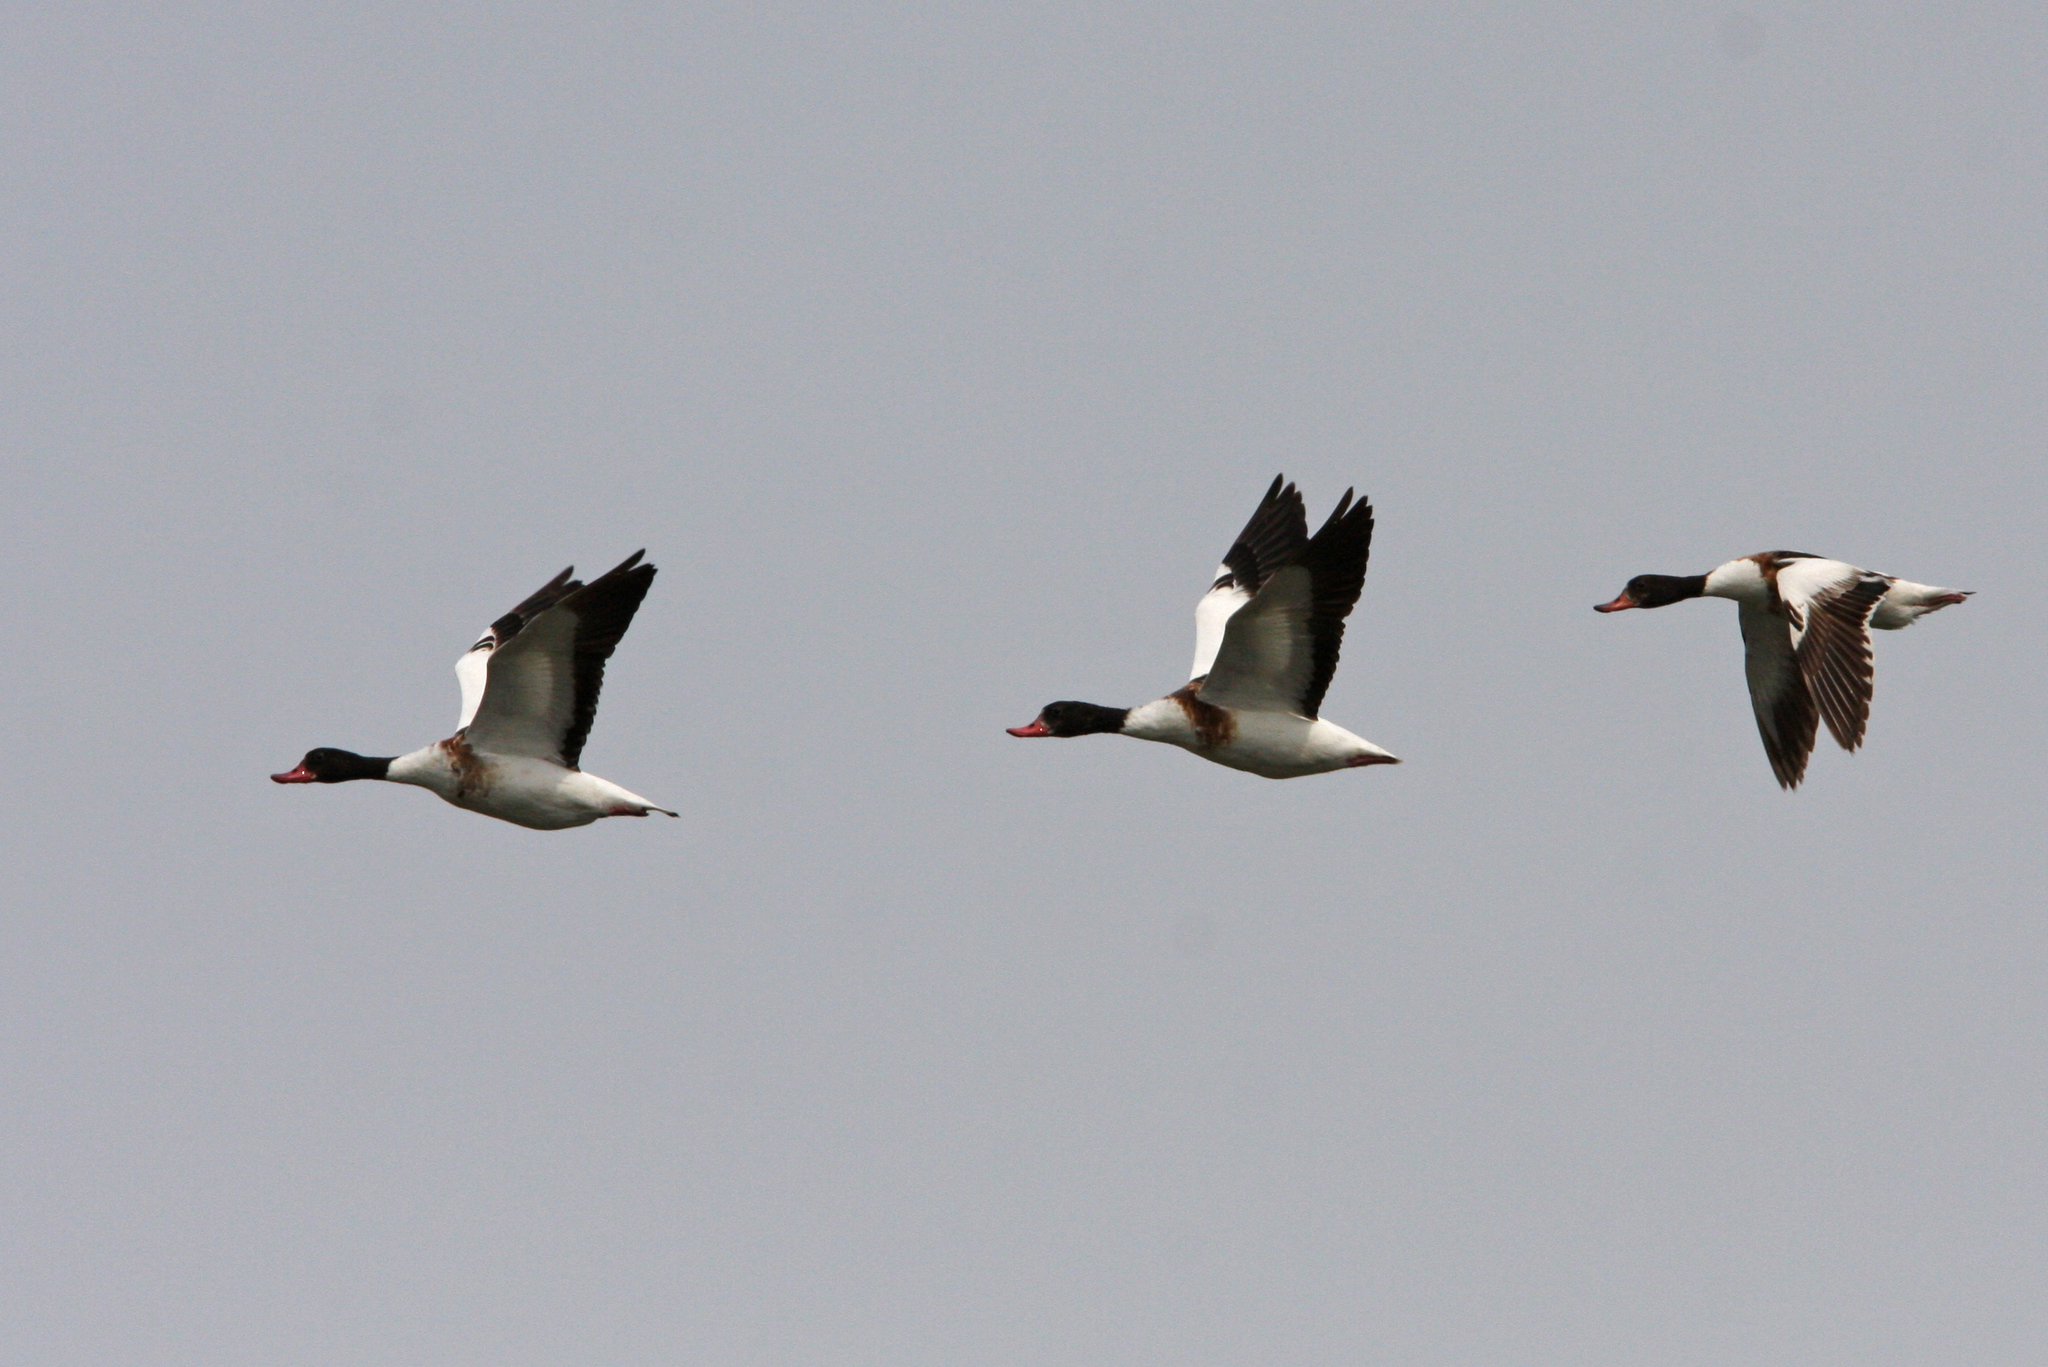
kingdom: Animalia
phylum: Chordata
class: Aves
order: Anseriformes
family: Anatidae
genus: Tadorna
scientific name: Tadorna tadorna
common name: Common shelduck
